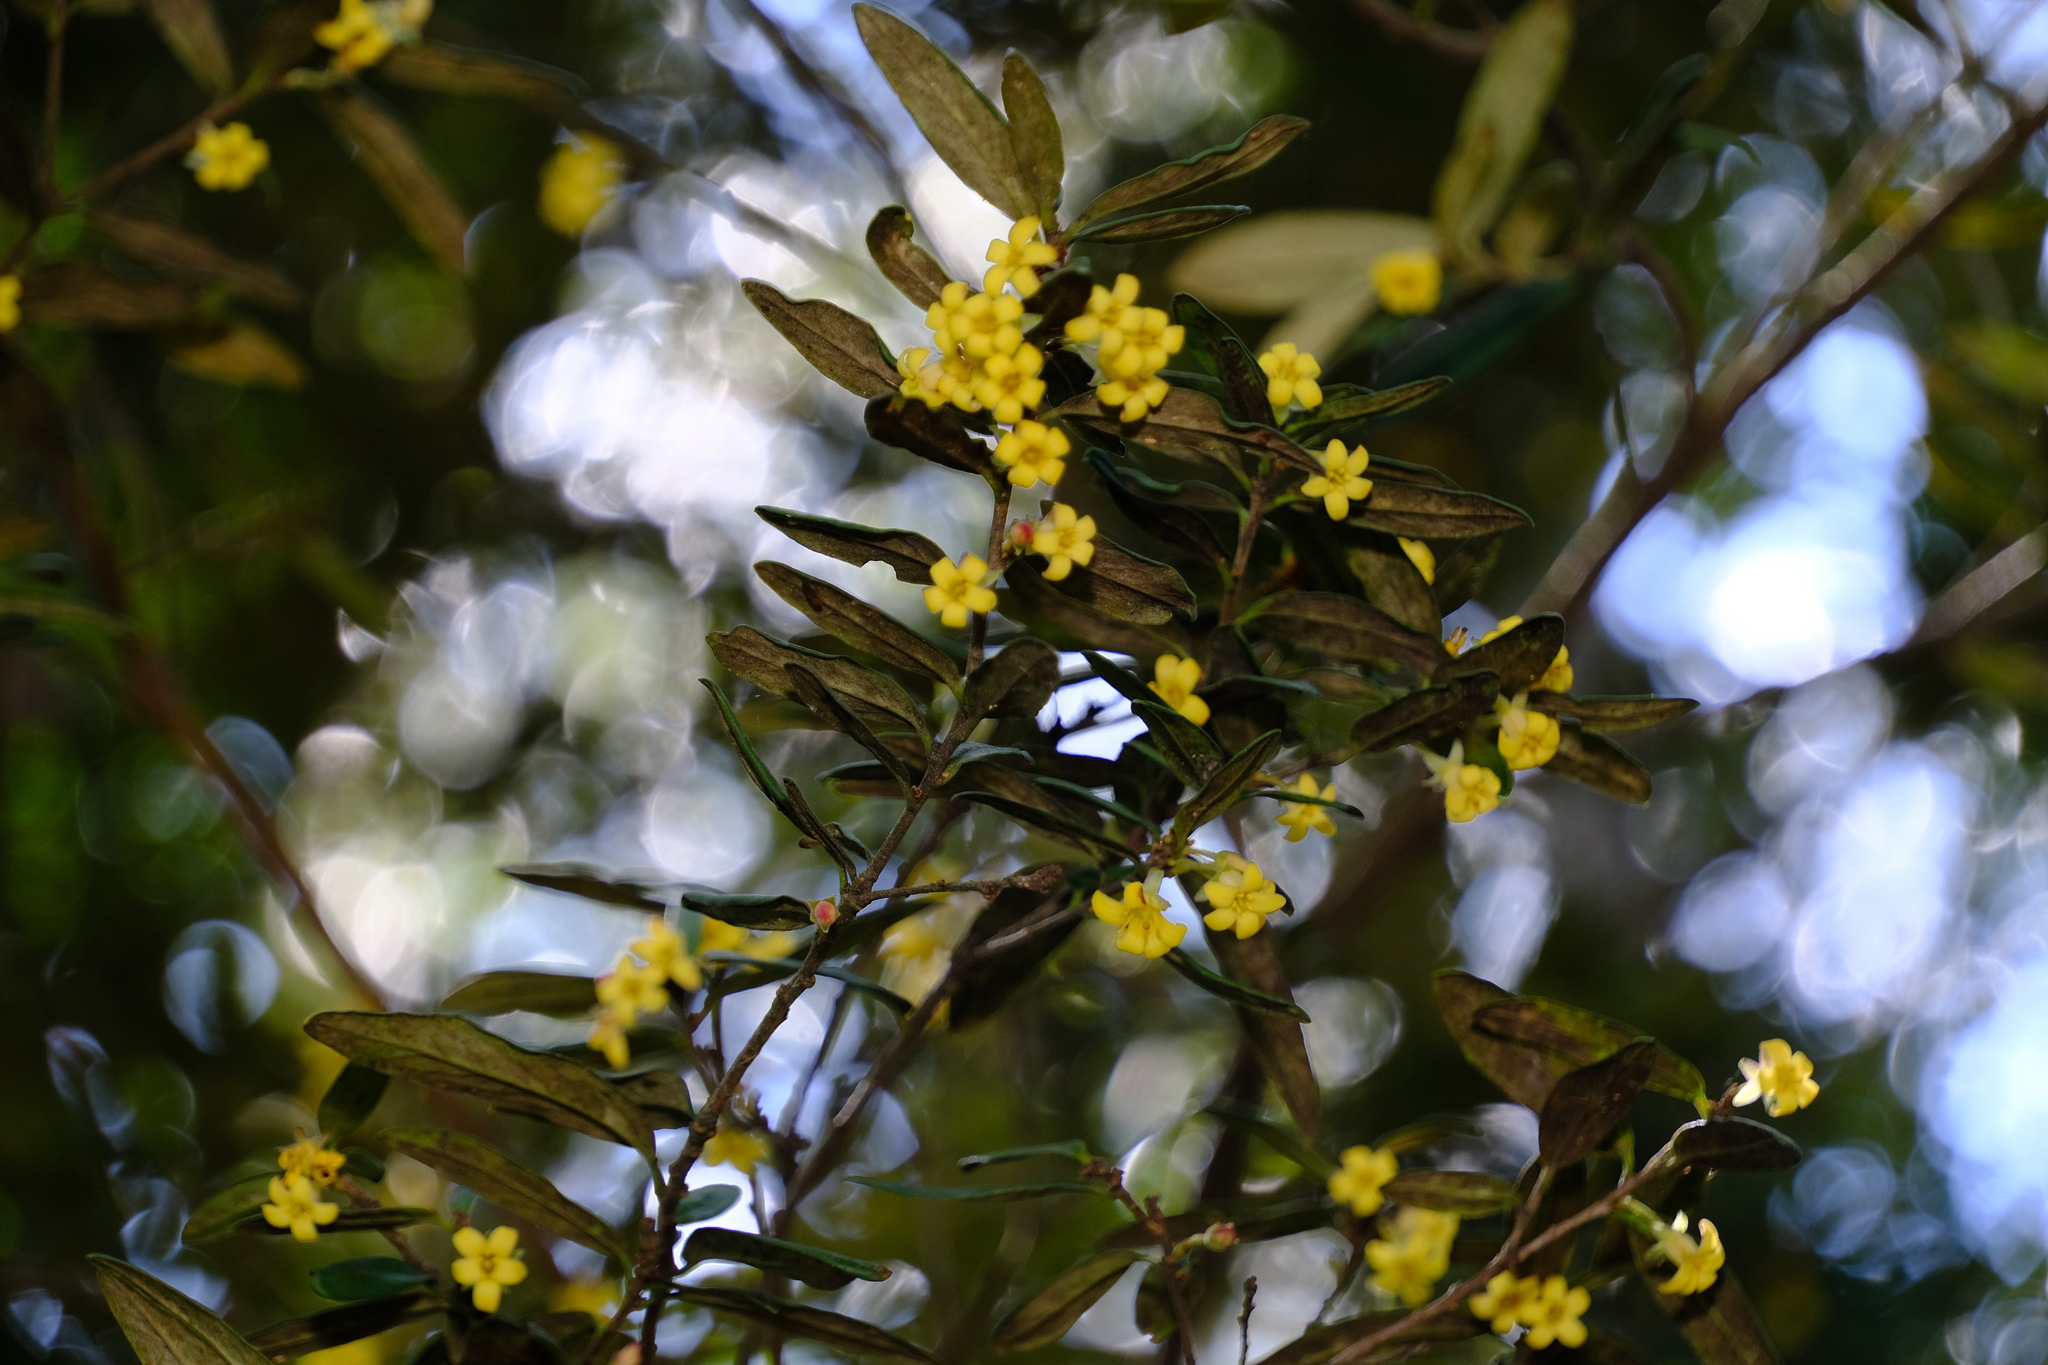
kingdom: Plantae
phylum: Tracheophyta
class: Magnoliopsida
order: Apiales
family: Pittosporaceae
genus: Pittosporum
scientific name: Pittosporum bicolor
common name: Tallowwood
